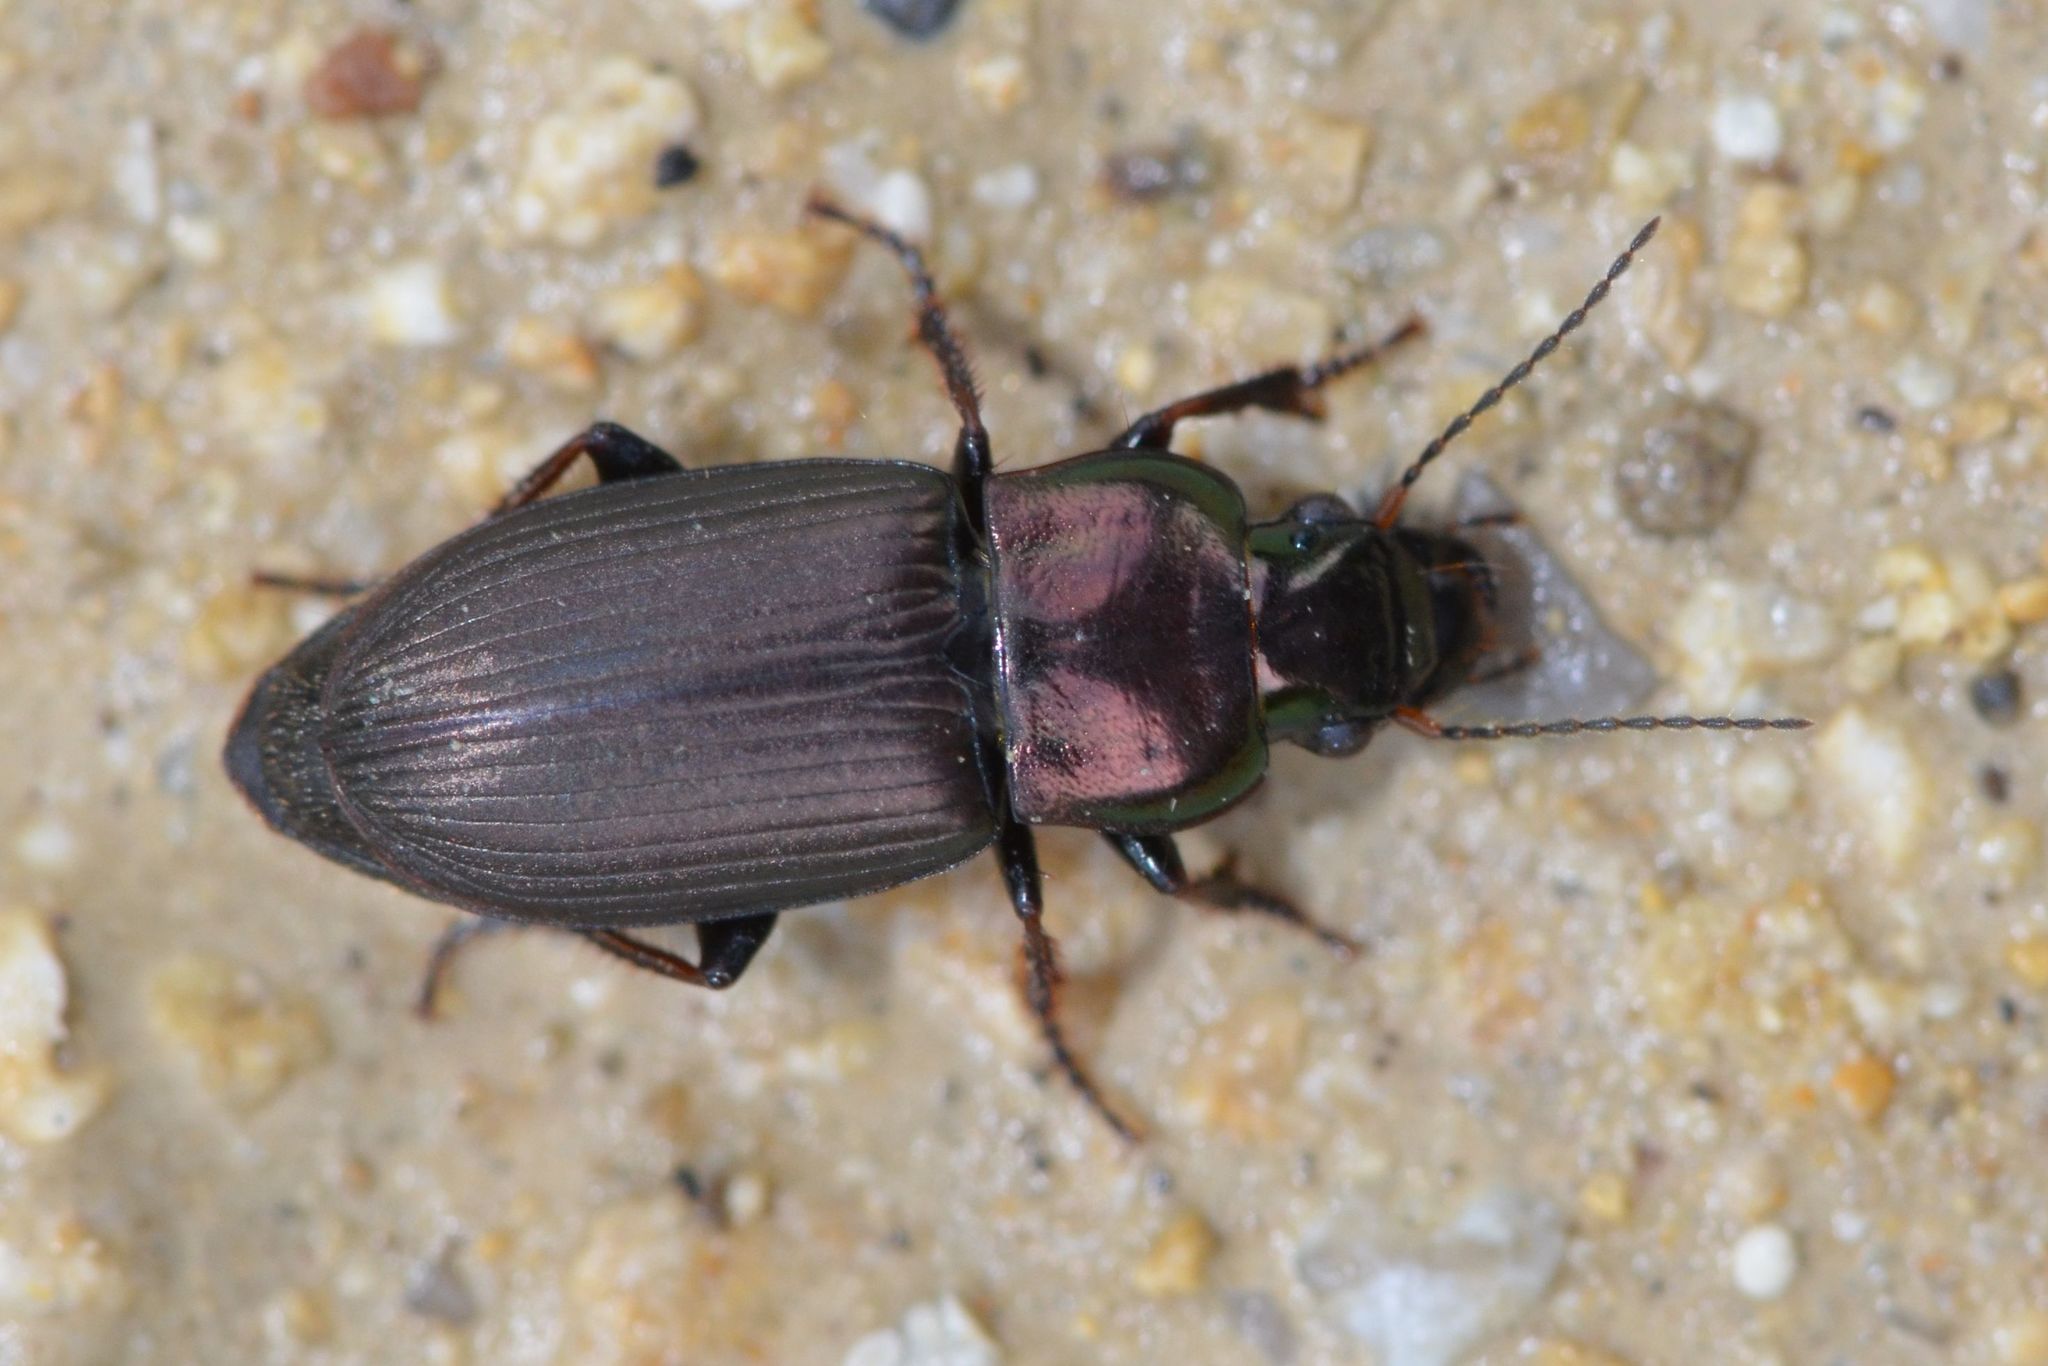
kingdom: Animalia
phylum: Arthropoda
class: Insecta
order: Coleoptera
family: Carabidae
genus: Harpalus
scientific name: Harpalus distinguendus
